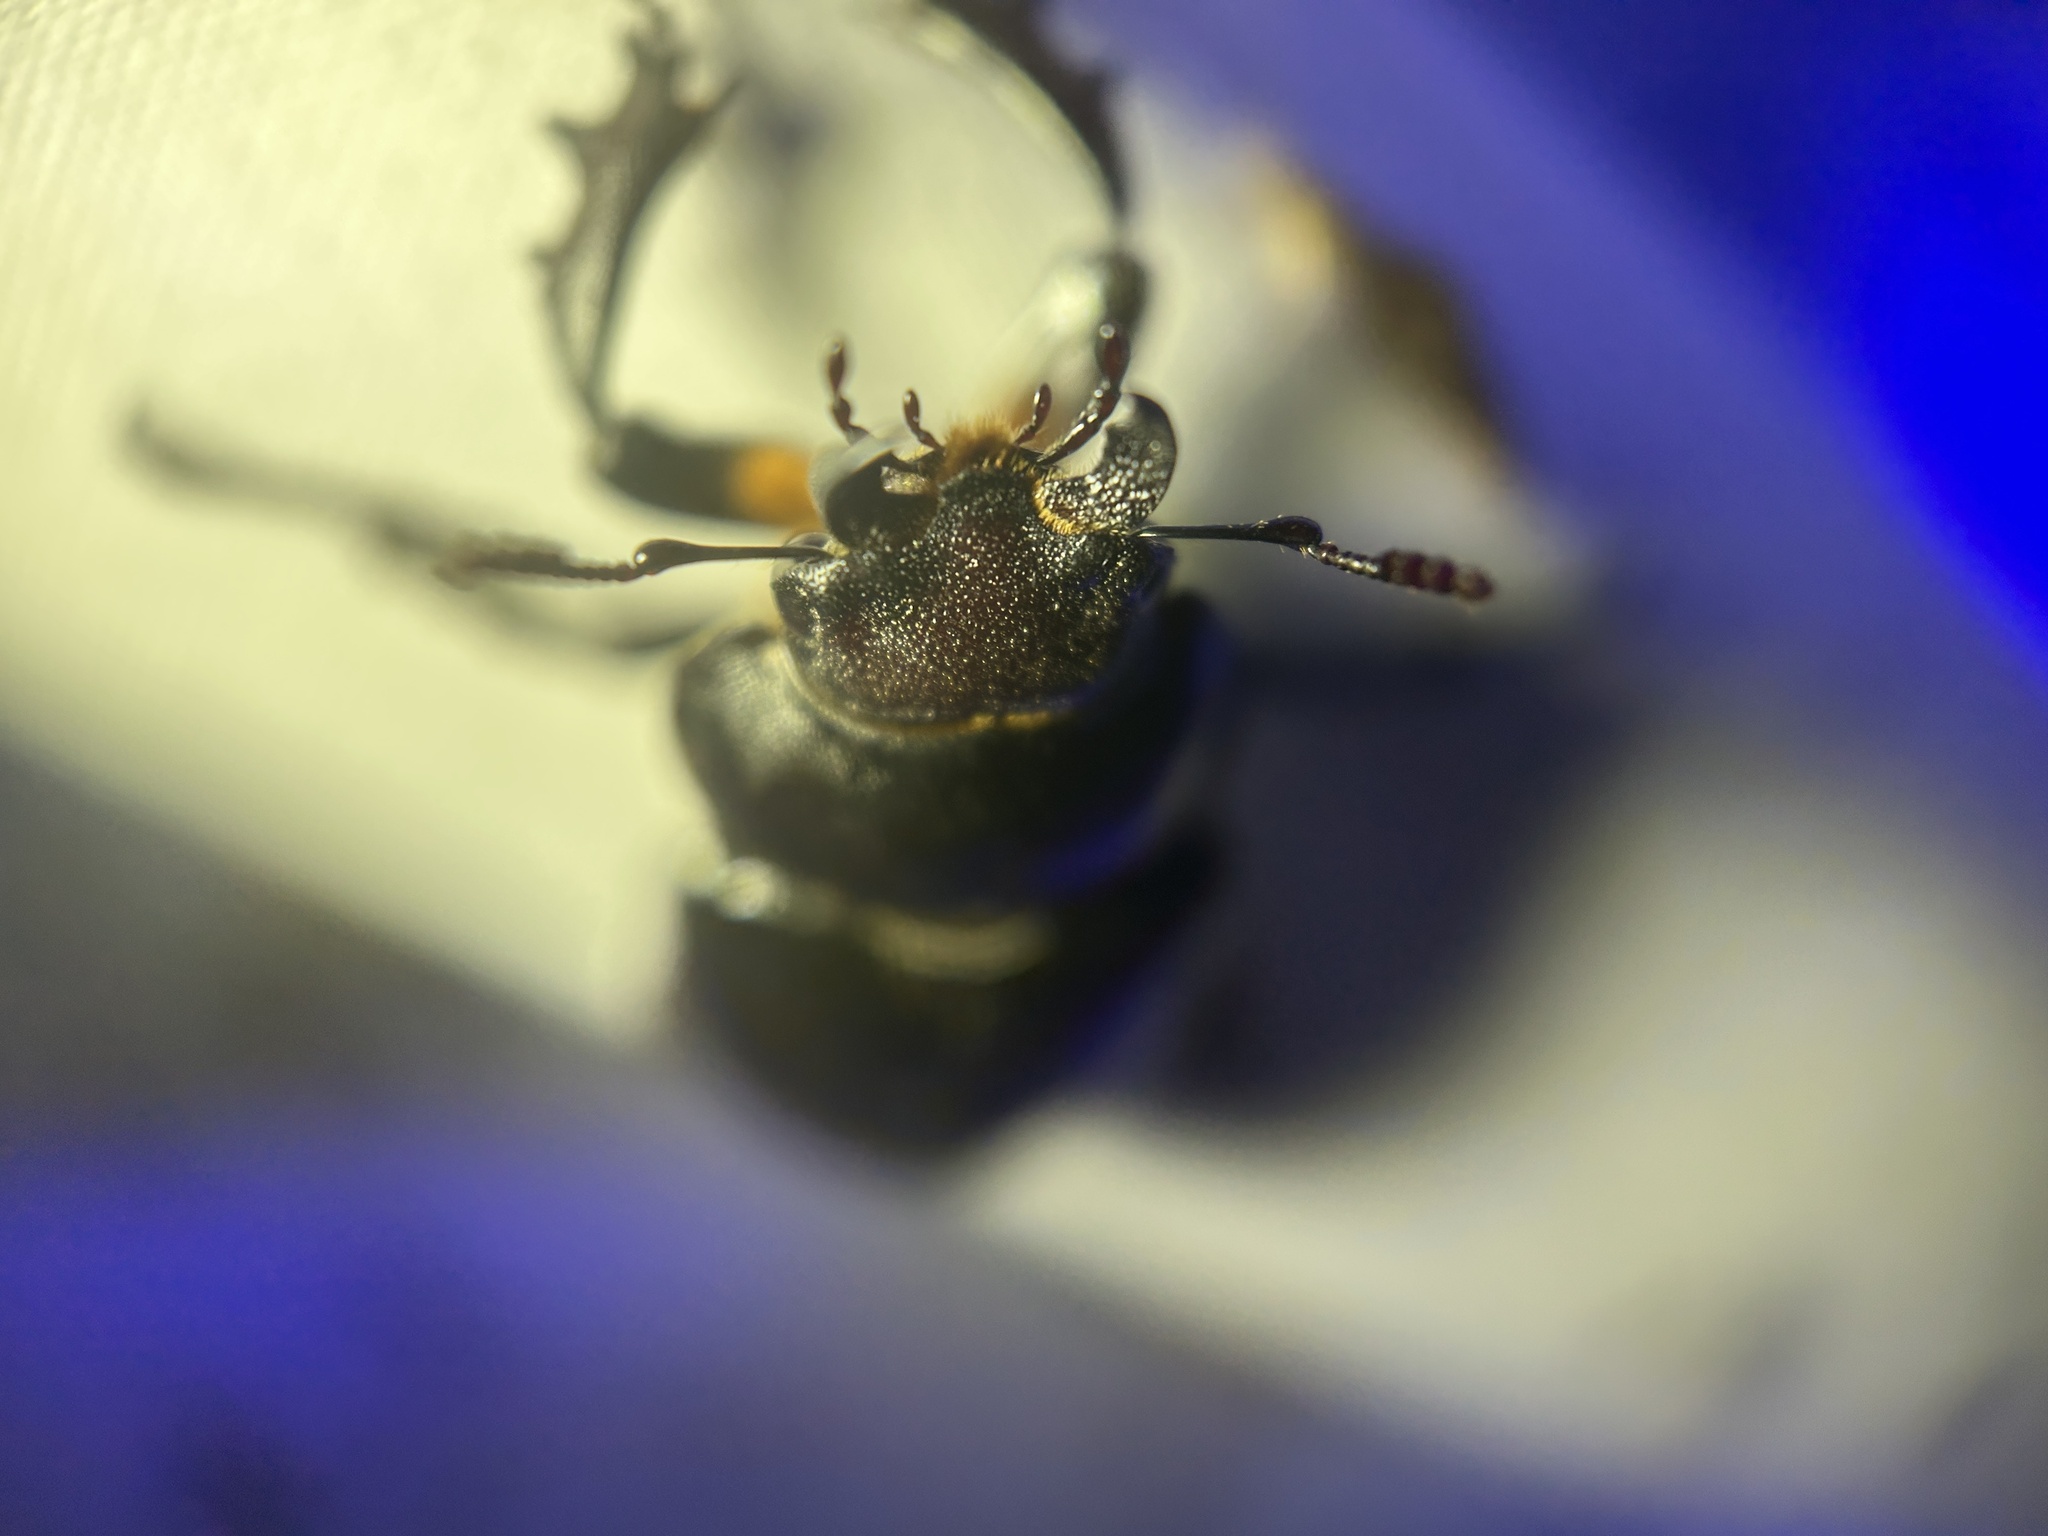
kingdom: Animalia
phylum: Arthropoda
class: Insecta
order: Coleoptera
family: Lucanidae
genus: Lucanus
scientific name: Lucanus placidus
